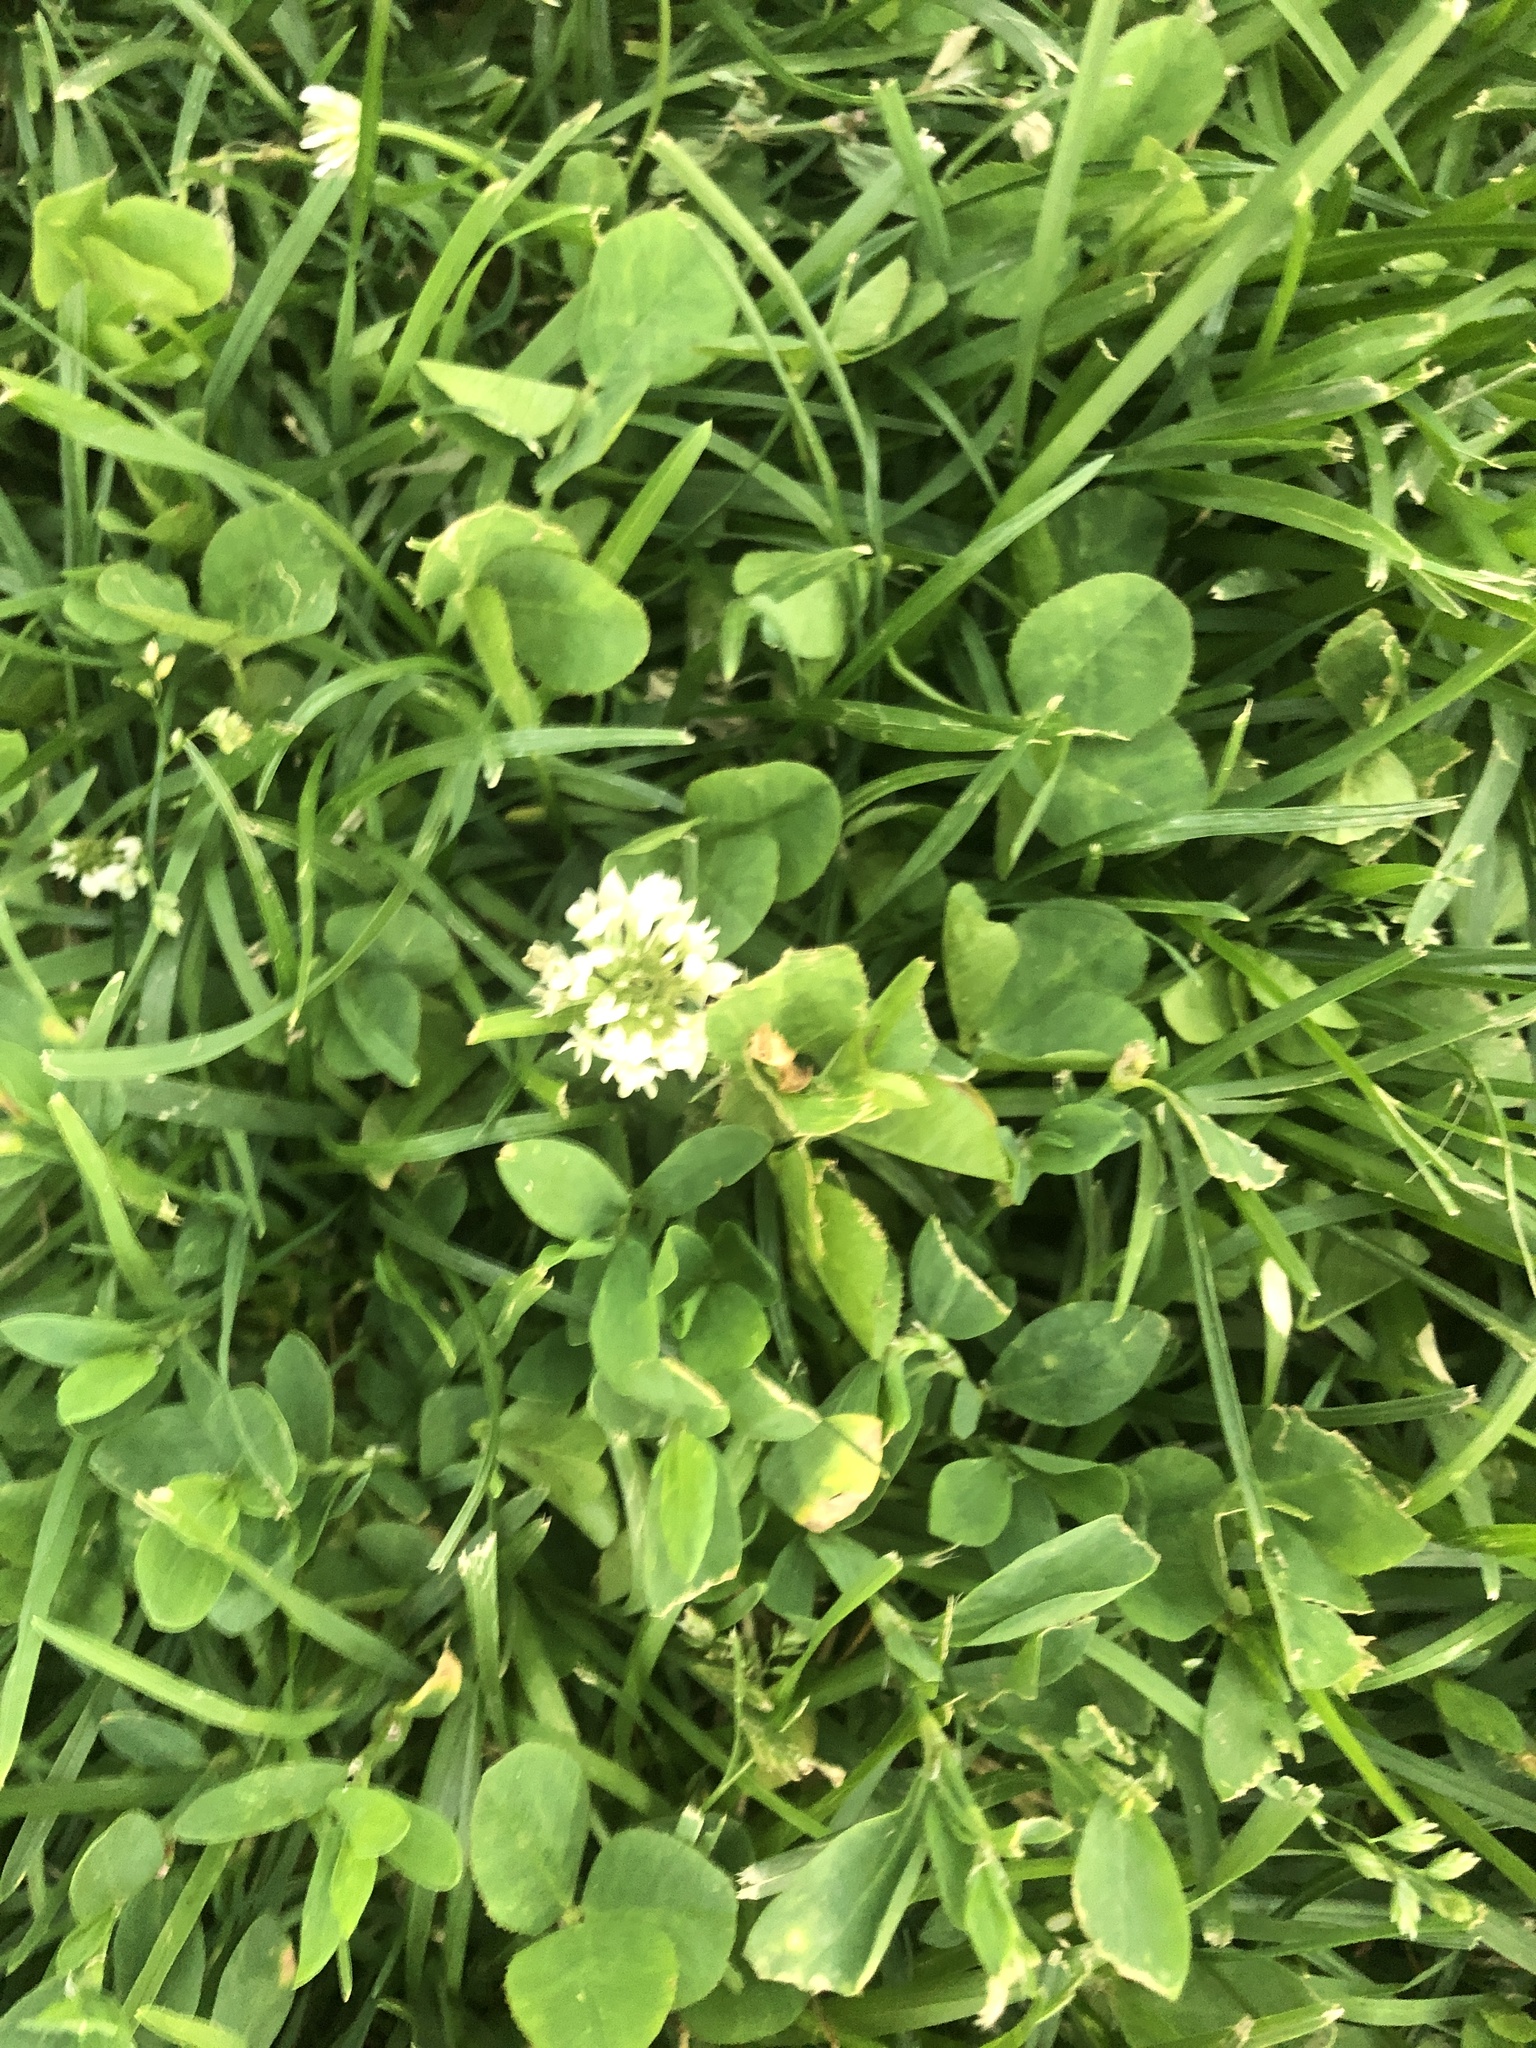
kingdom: Plantae
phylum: Tracheophyta
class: Magnoliopsida
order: Fabales
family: Fabaceae
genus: Trifolium
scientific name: Trifolium repens
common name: White clover
